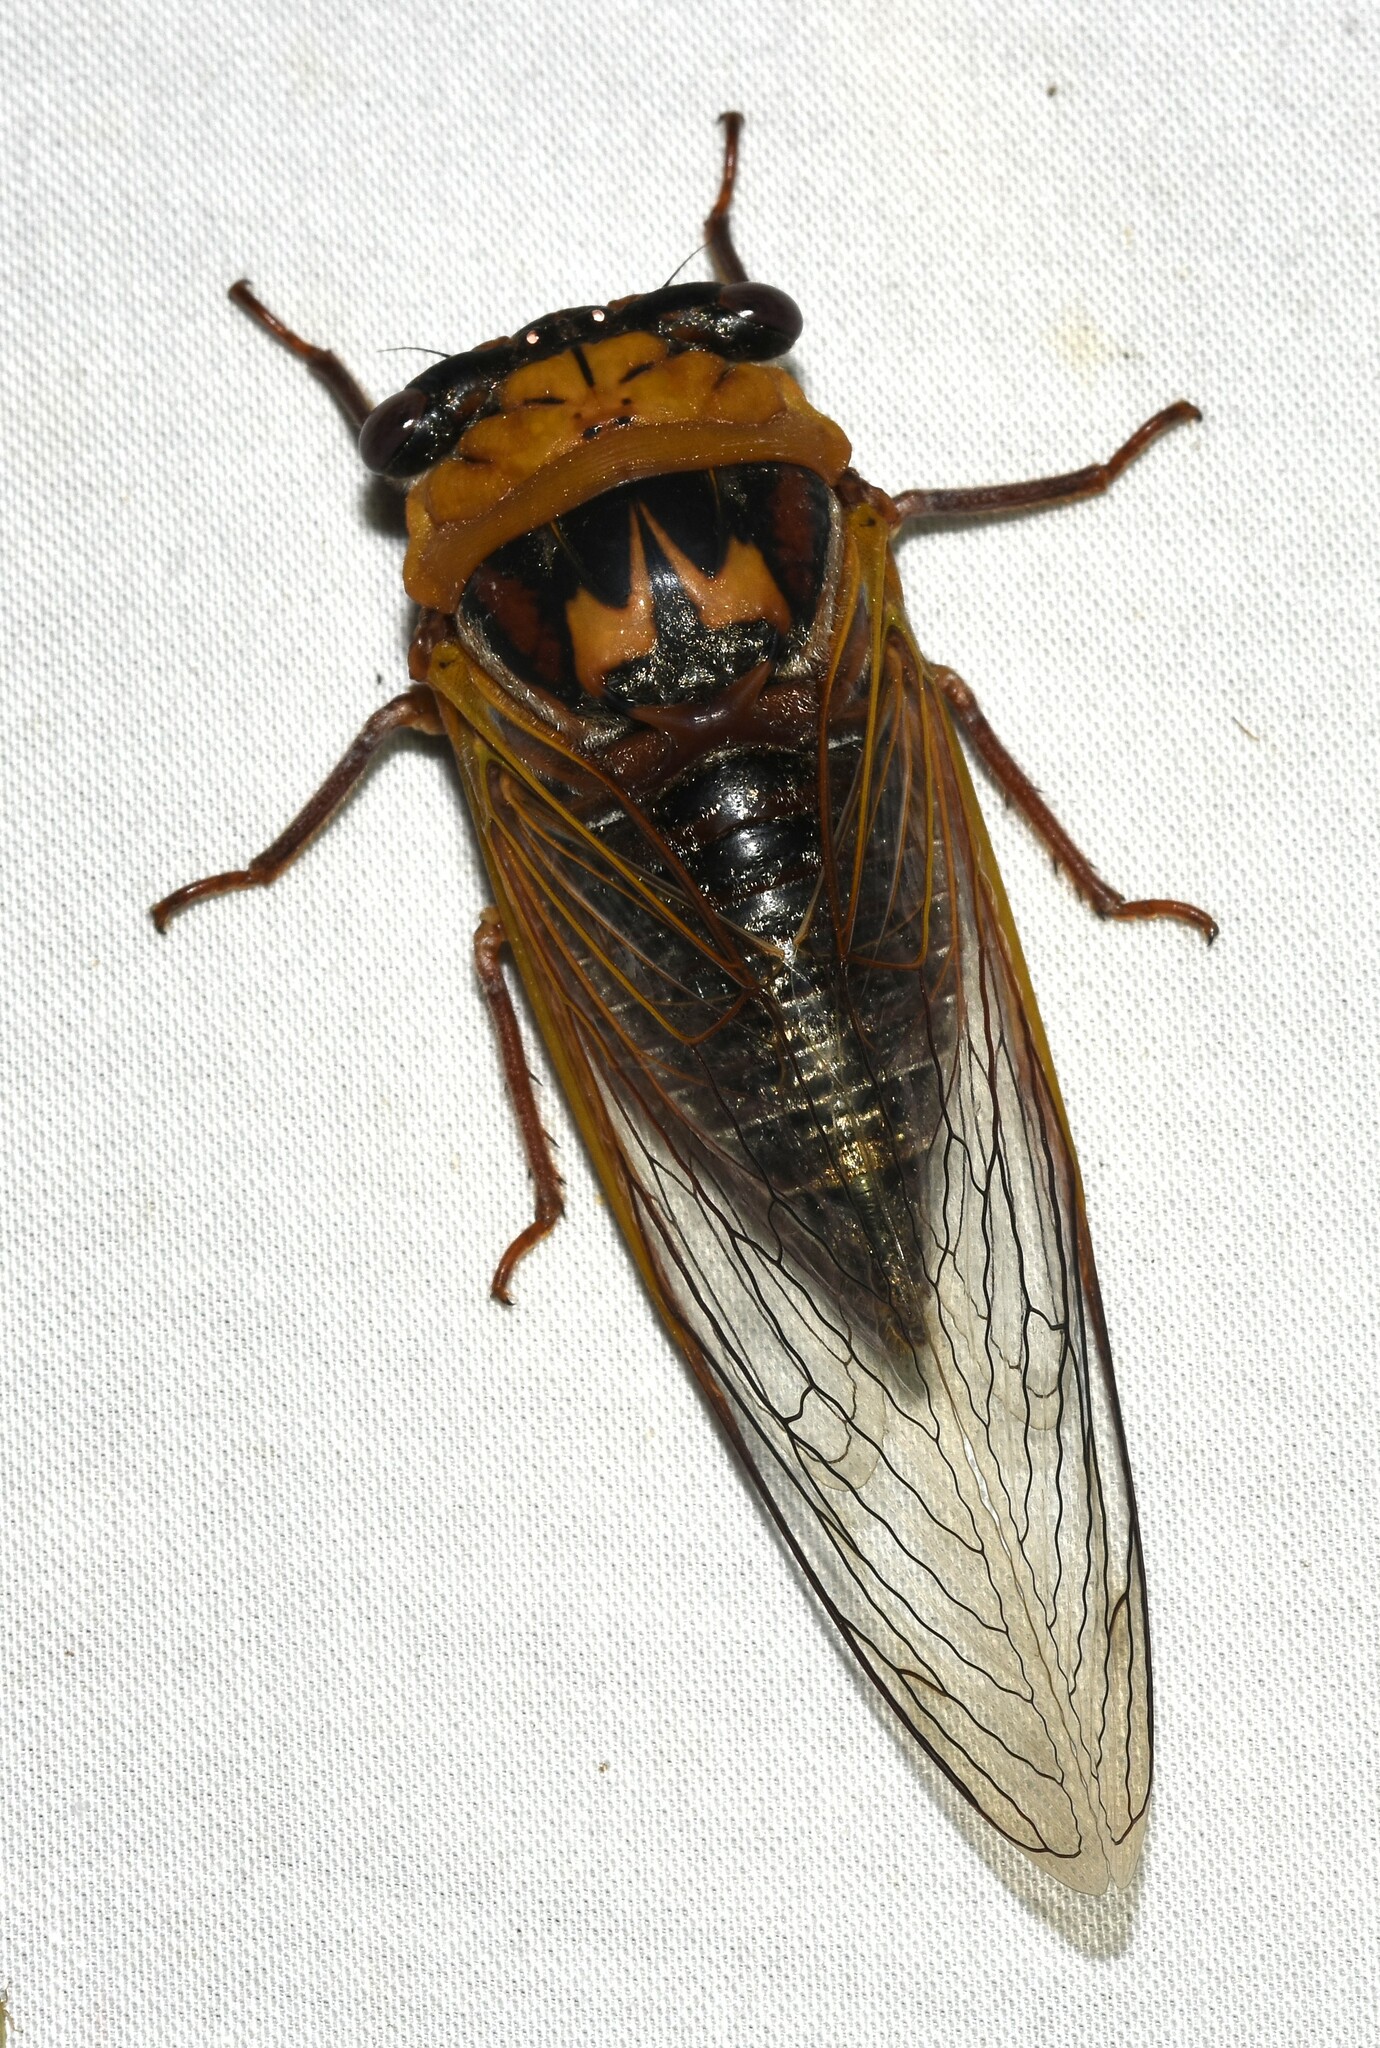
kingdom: Animalia
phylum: Arthropoda
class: Insecta
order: Hemiptera
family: Cicadidae
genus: Megatibicen
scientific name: Megatibicen pronotalis
